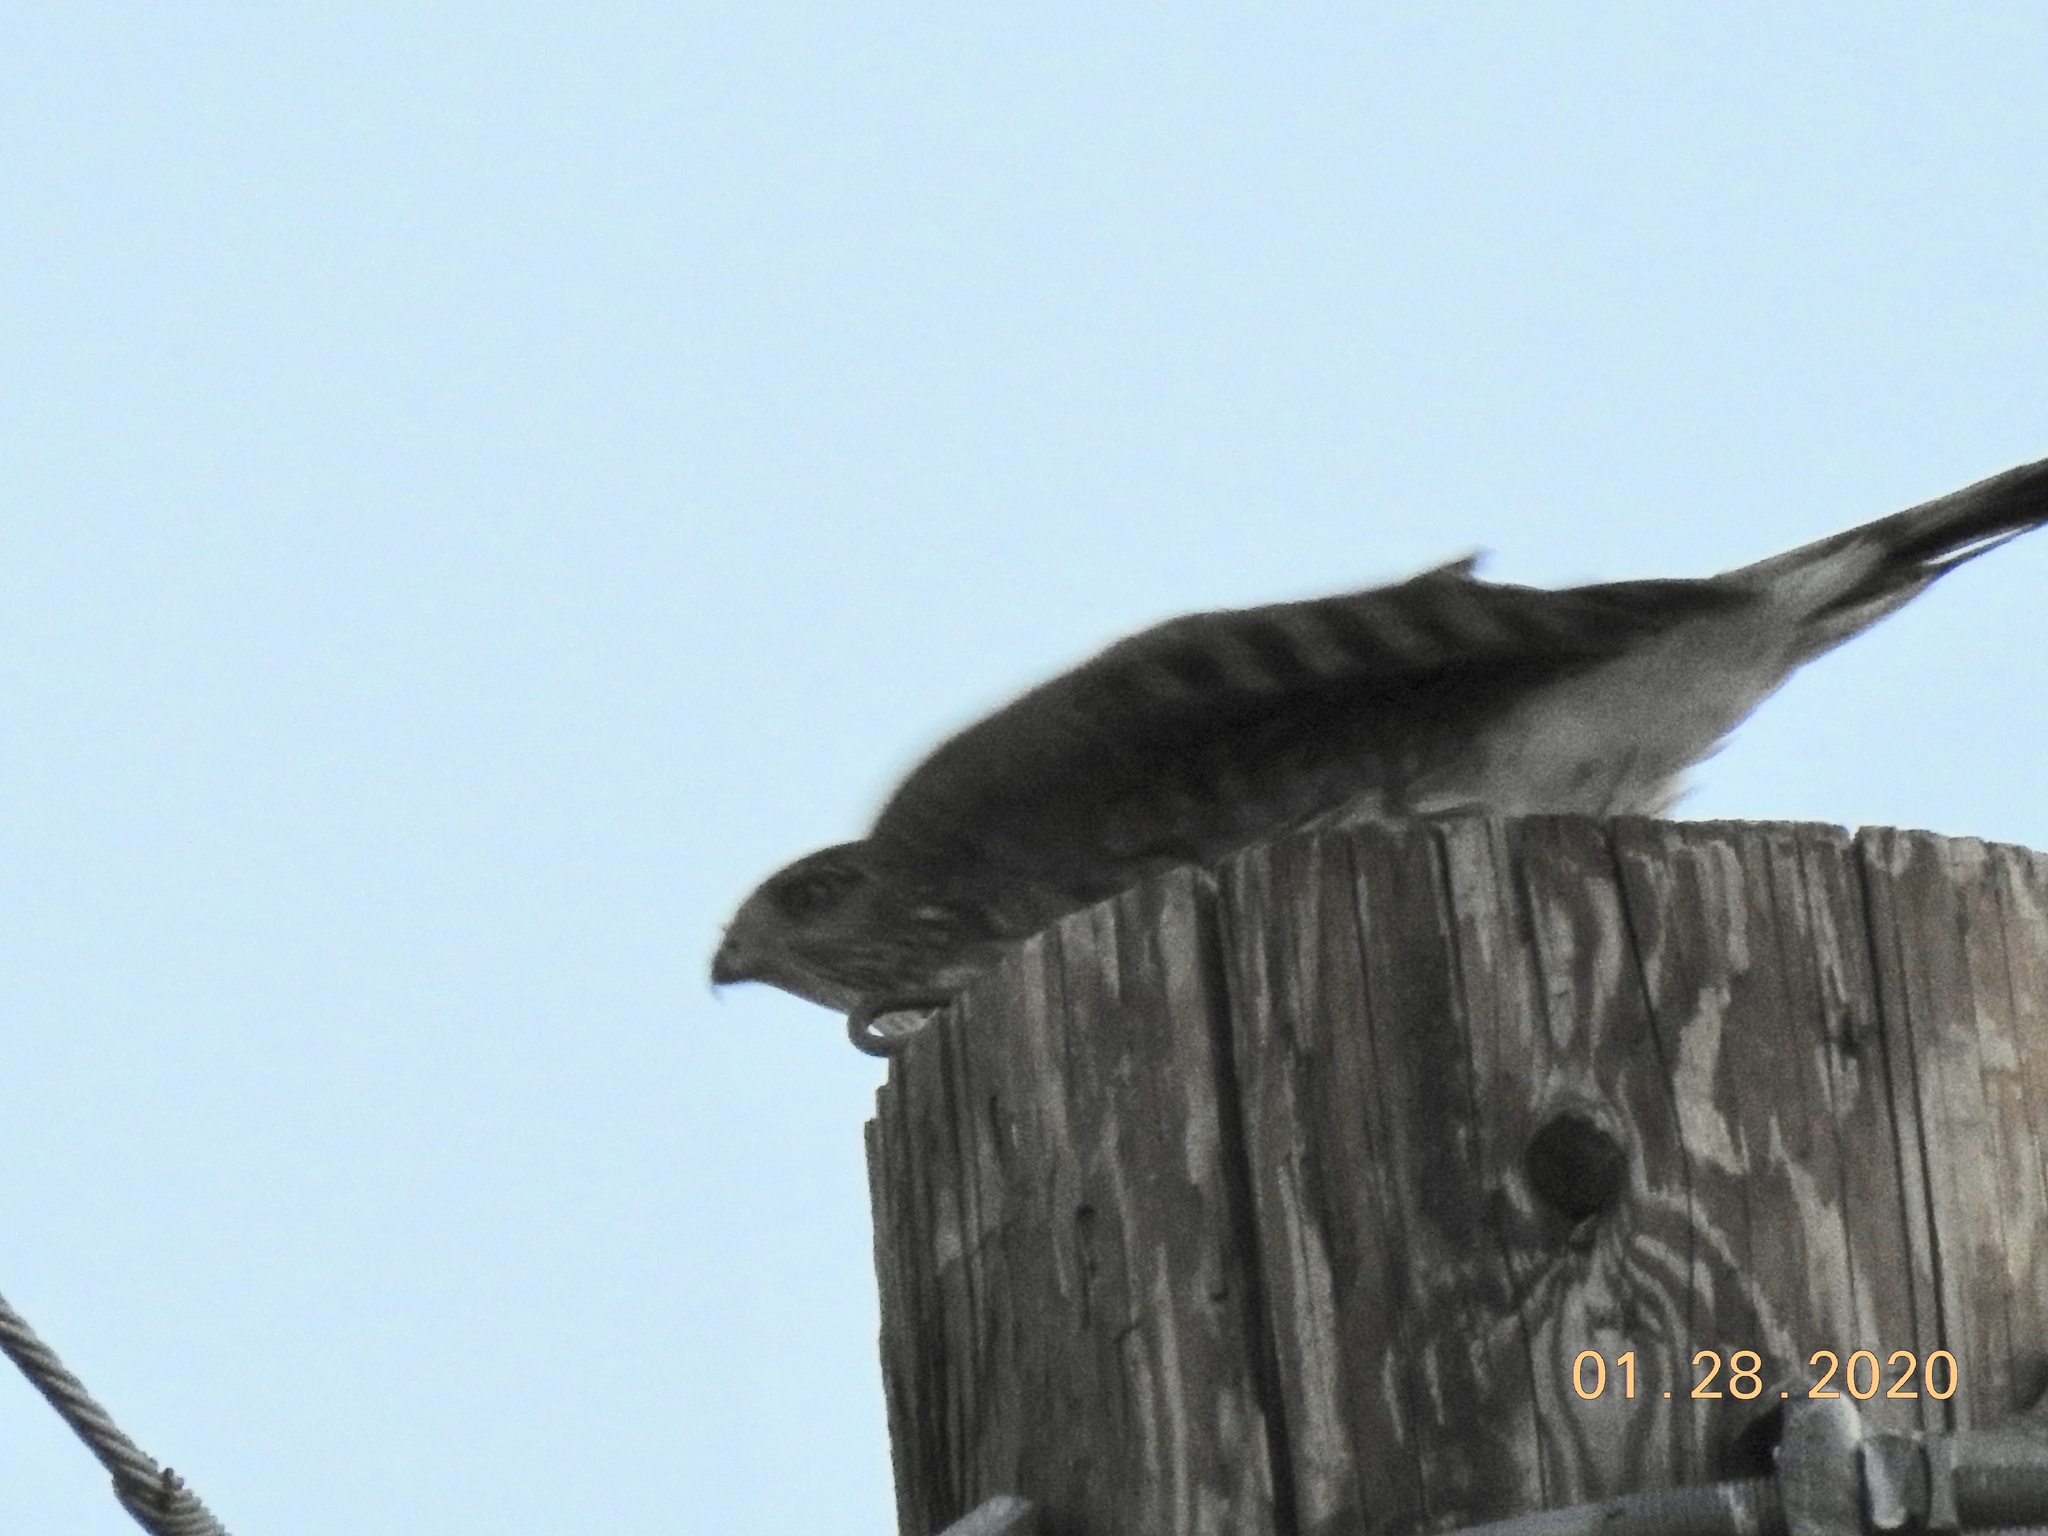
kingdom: Animalia
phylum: Chordata
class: Aves
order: Accipitriformes
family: Accipitridae
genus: Accipiter
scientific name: Accipiter cooperii
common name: Cooper's hawk
